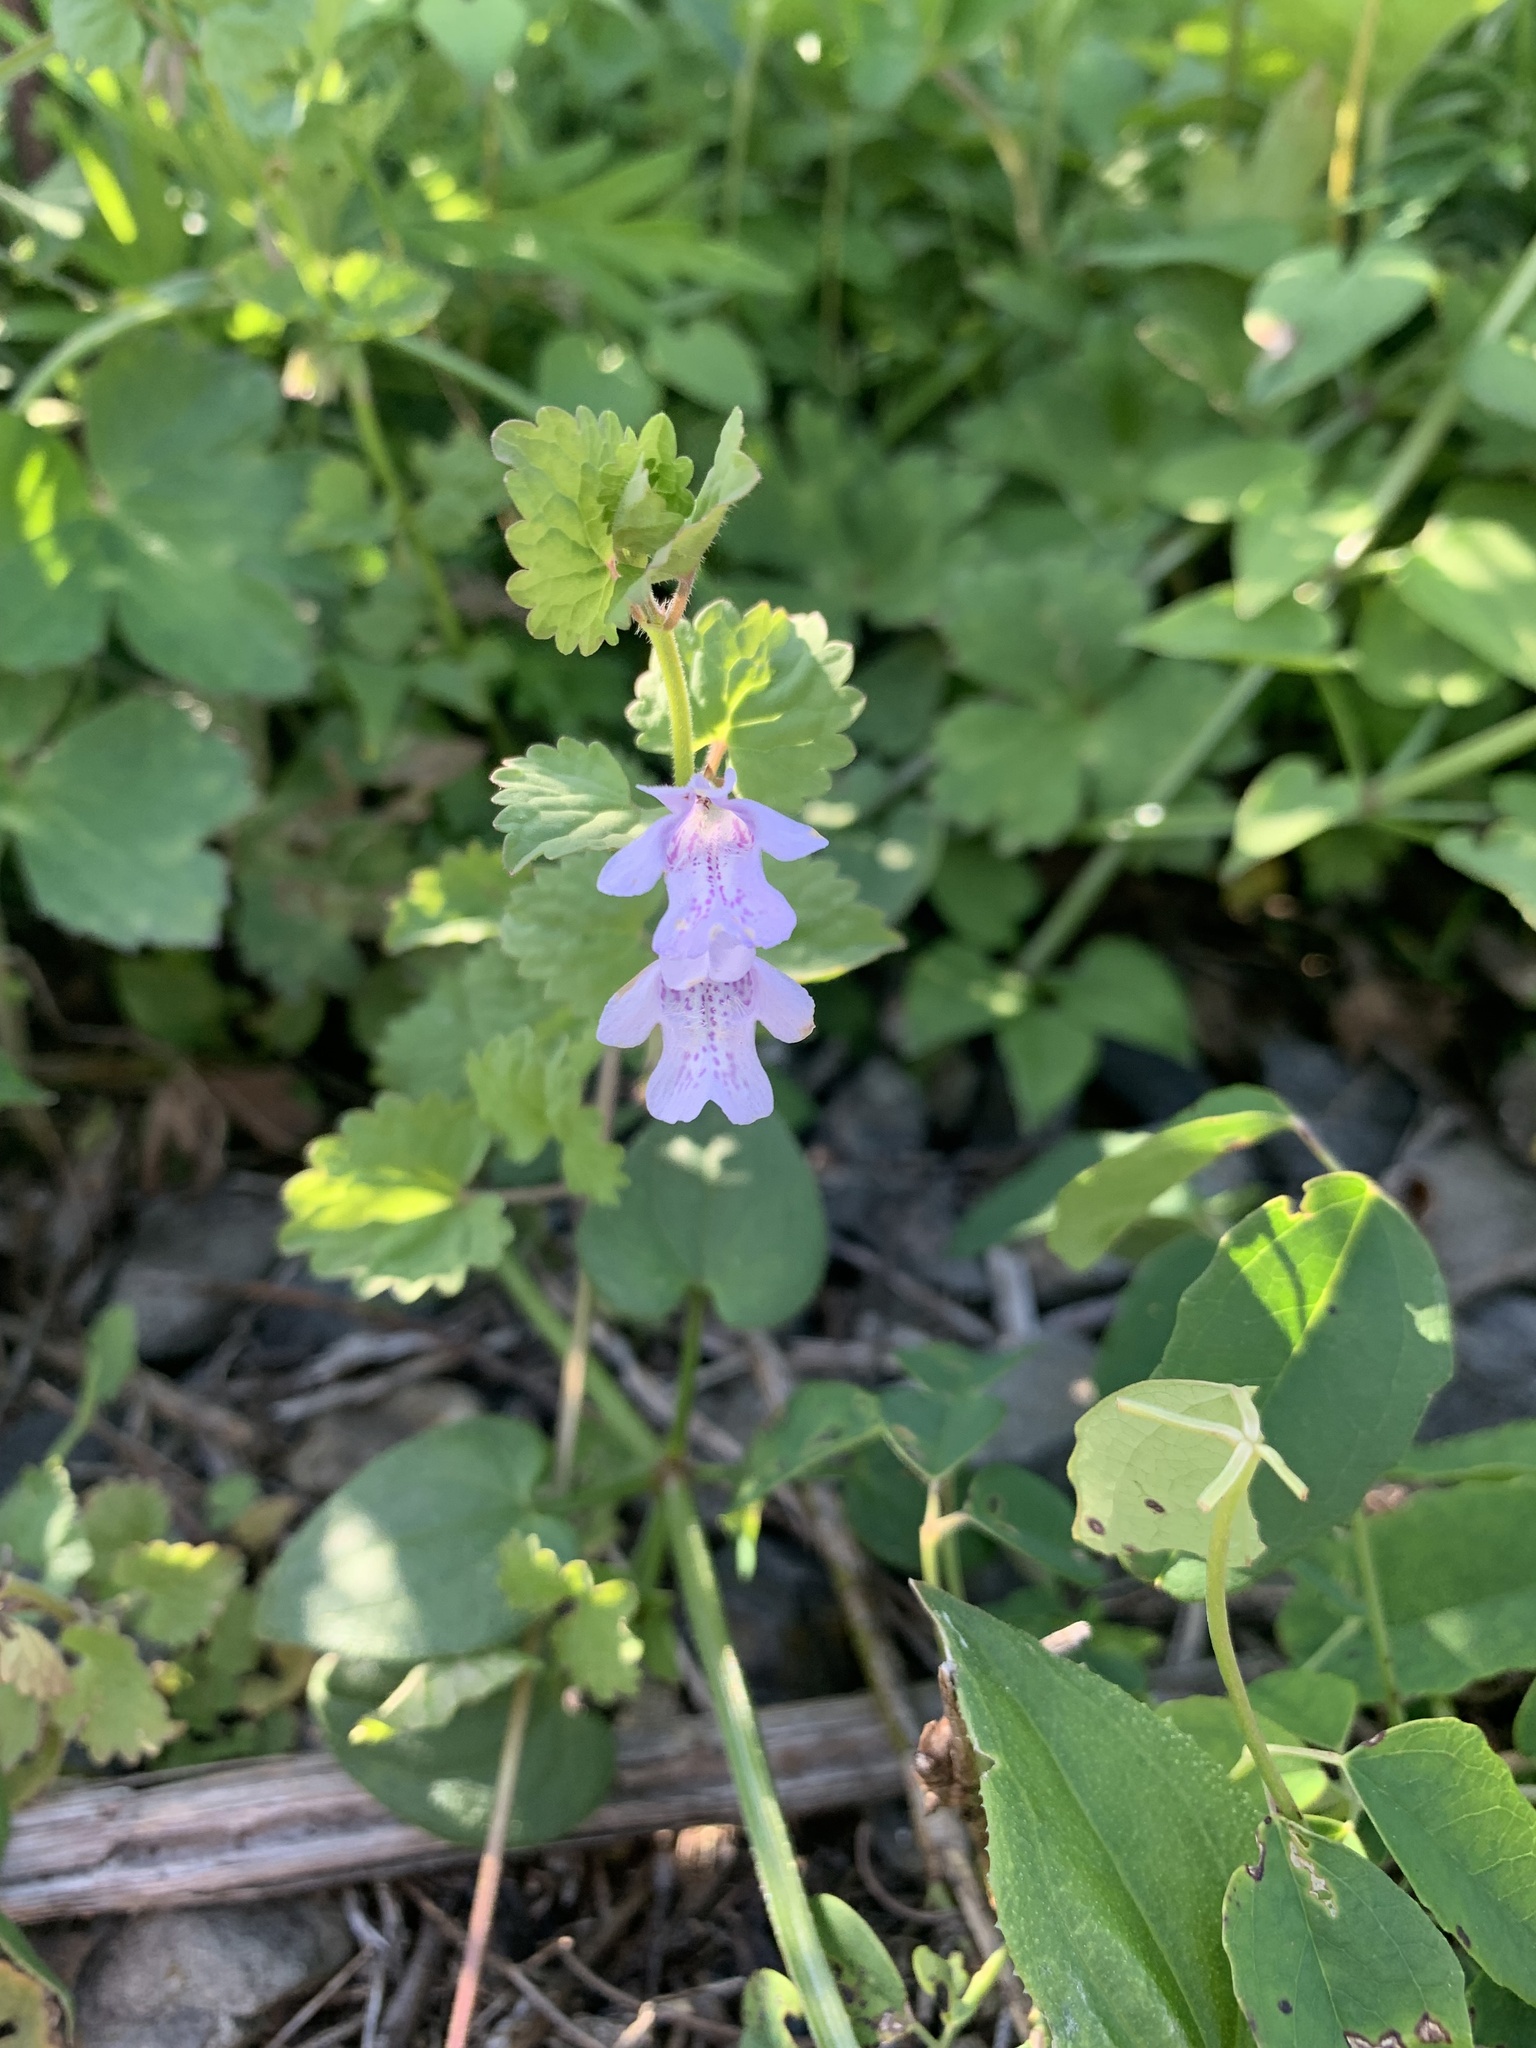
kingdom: Plantae
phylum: Tracheophyta
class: Magnoliopsida
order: Lamiales
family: Lamiaceae
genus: Glechoma
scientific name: Glechoma grandis
